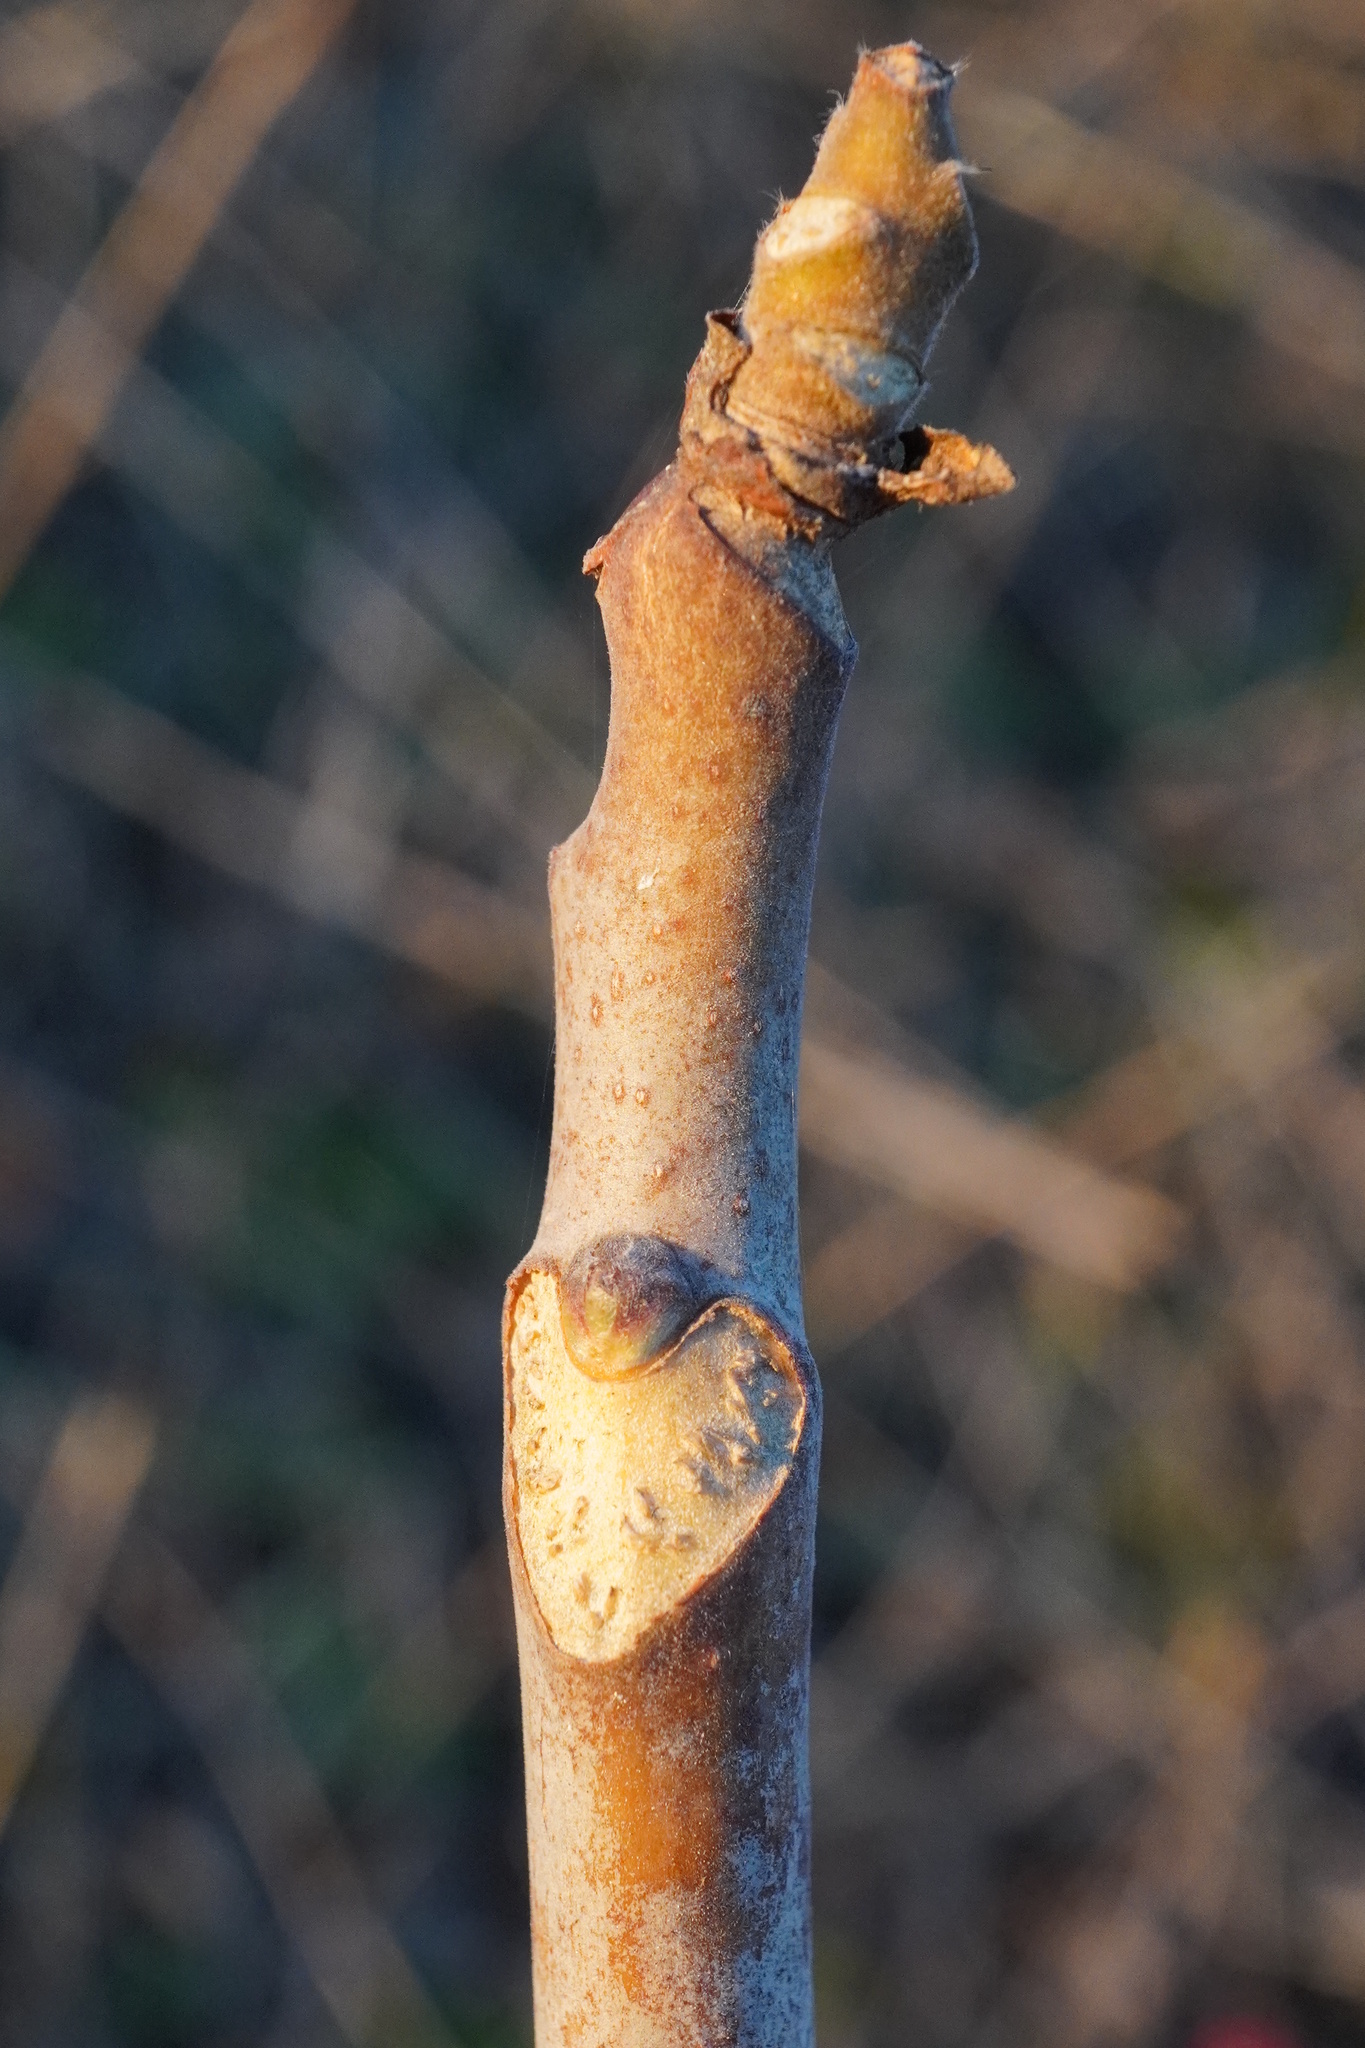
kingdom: Plantae
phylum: Tracheophyta
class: Magnoliopsida
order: Sapindales
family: Simaroubaceae
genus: Ailanthus
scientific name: Ailanthus altissima
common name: Tree-of-heaven
